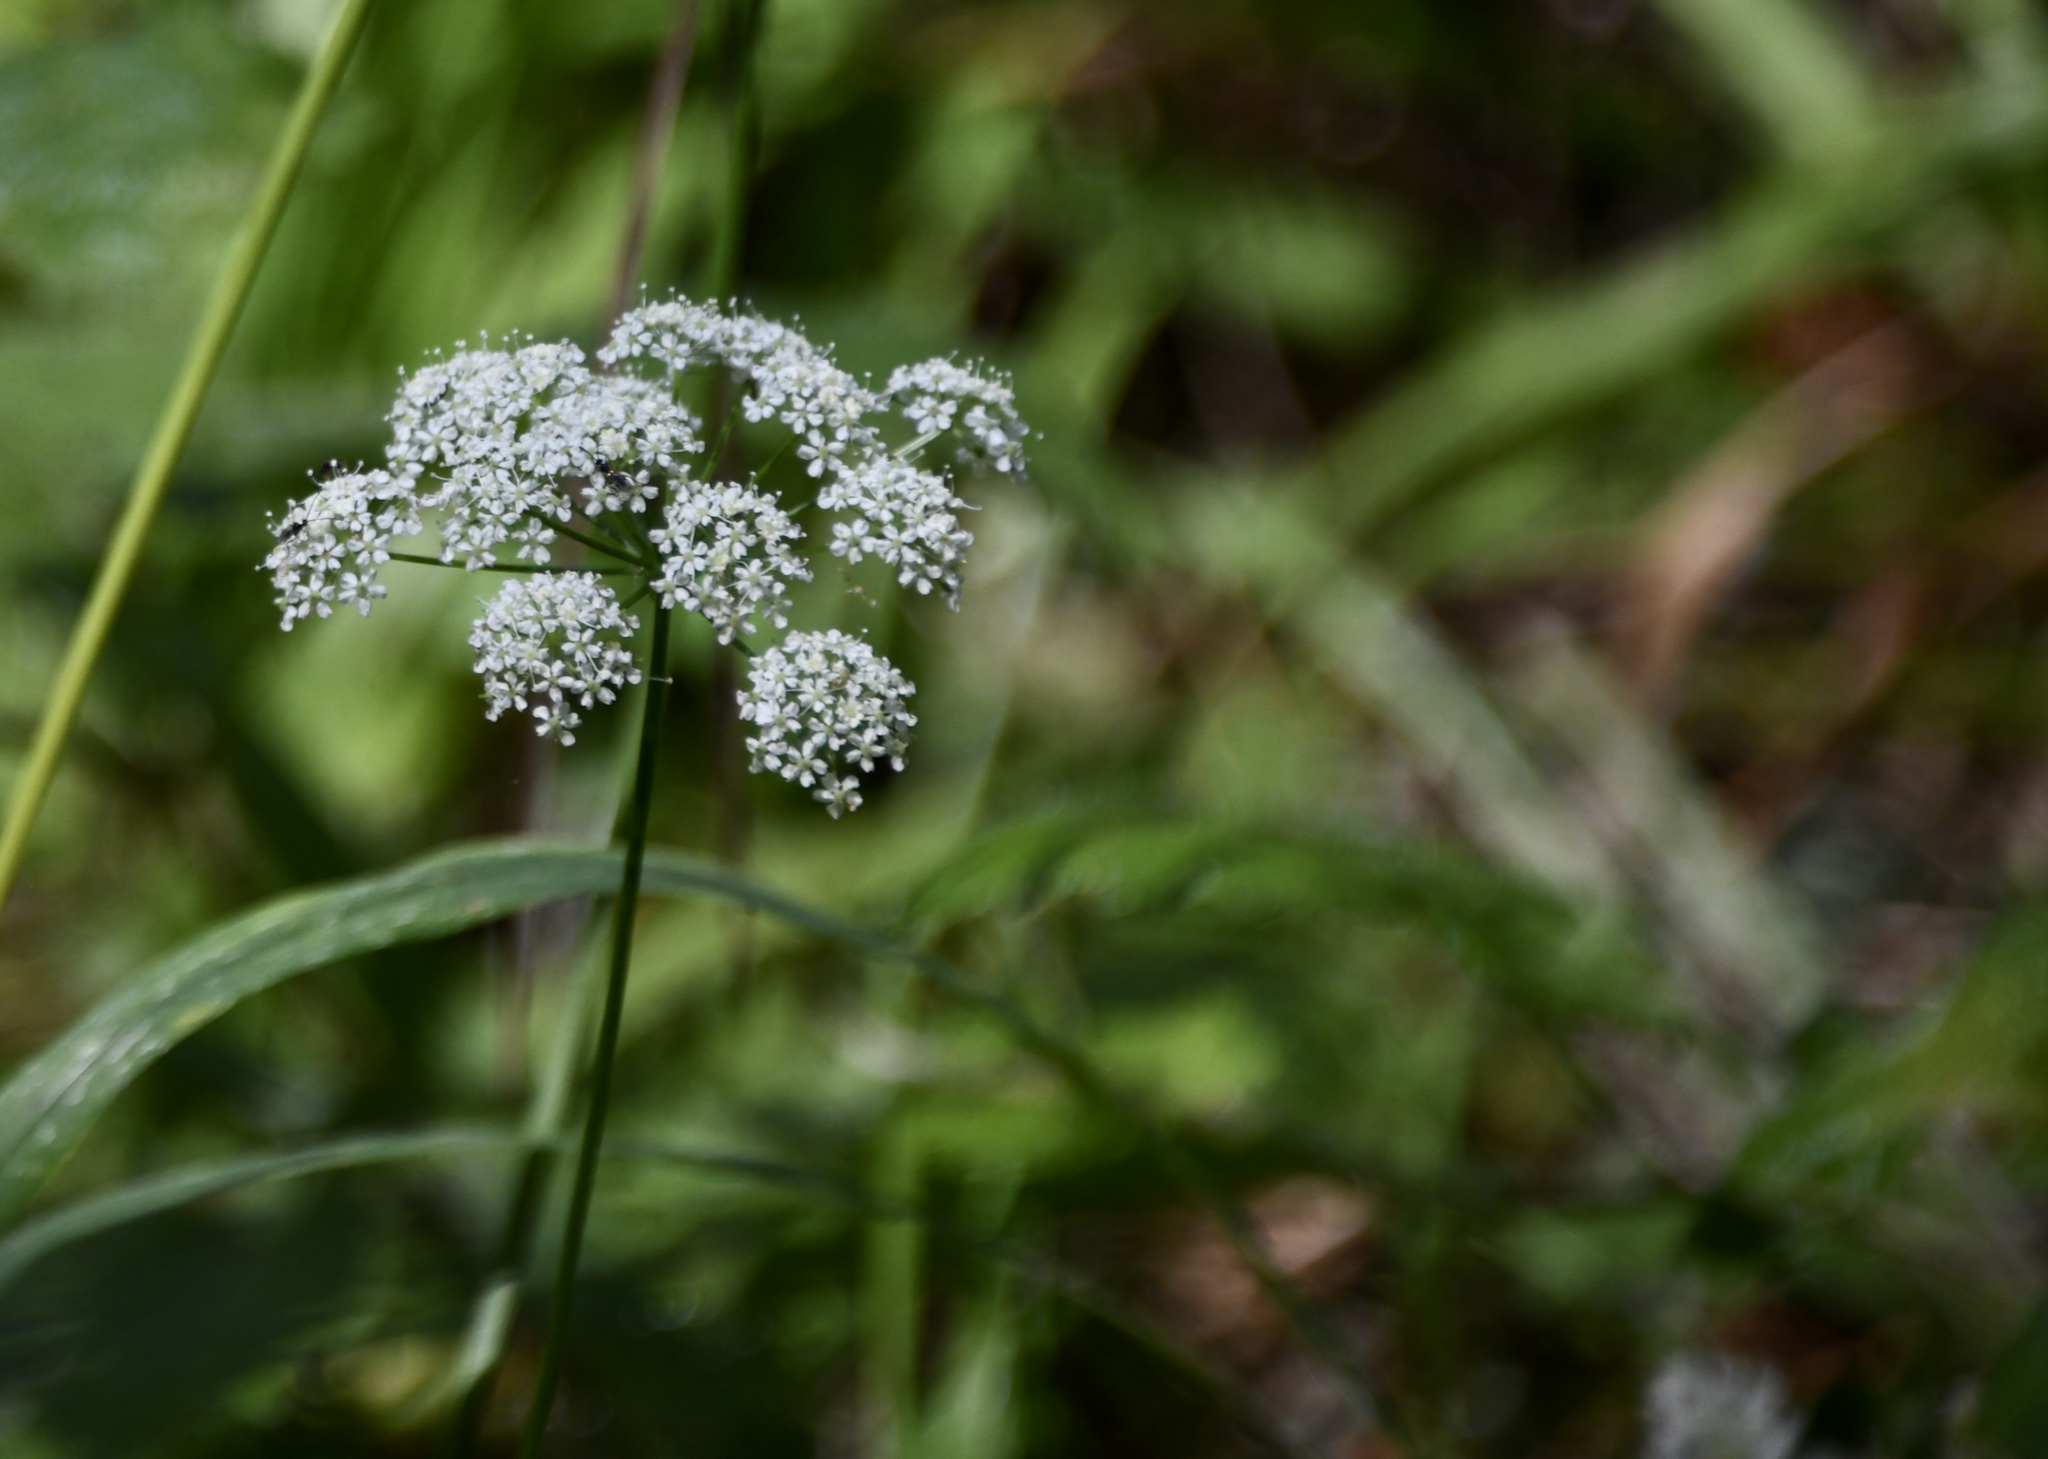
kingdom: Plantae
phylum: Tracheophyta
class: Magnoliopsida
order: Apiales
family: Apiaceae
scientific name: Apiaceae
